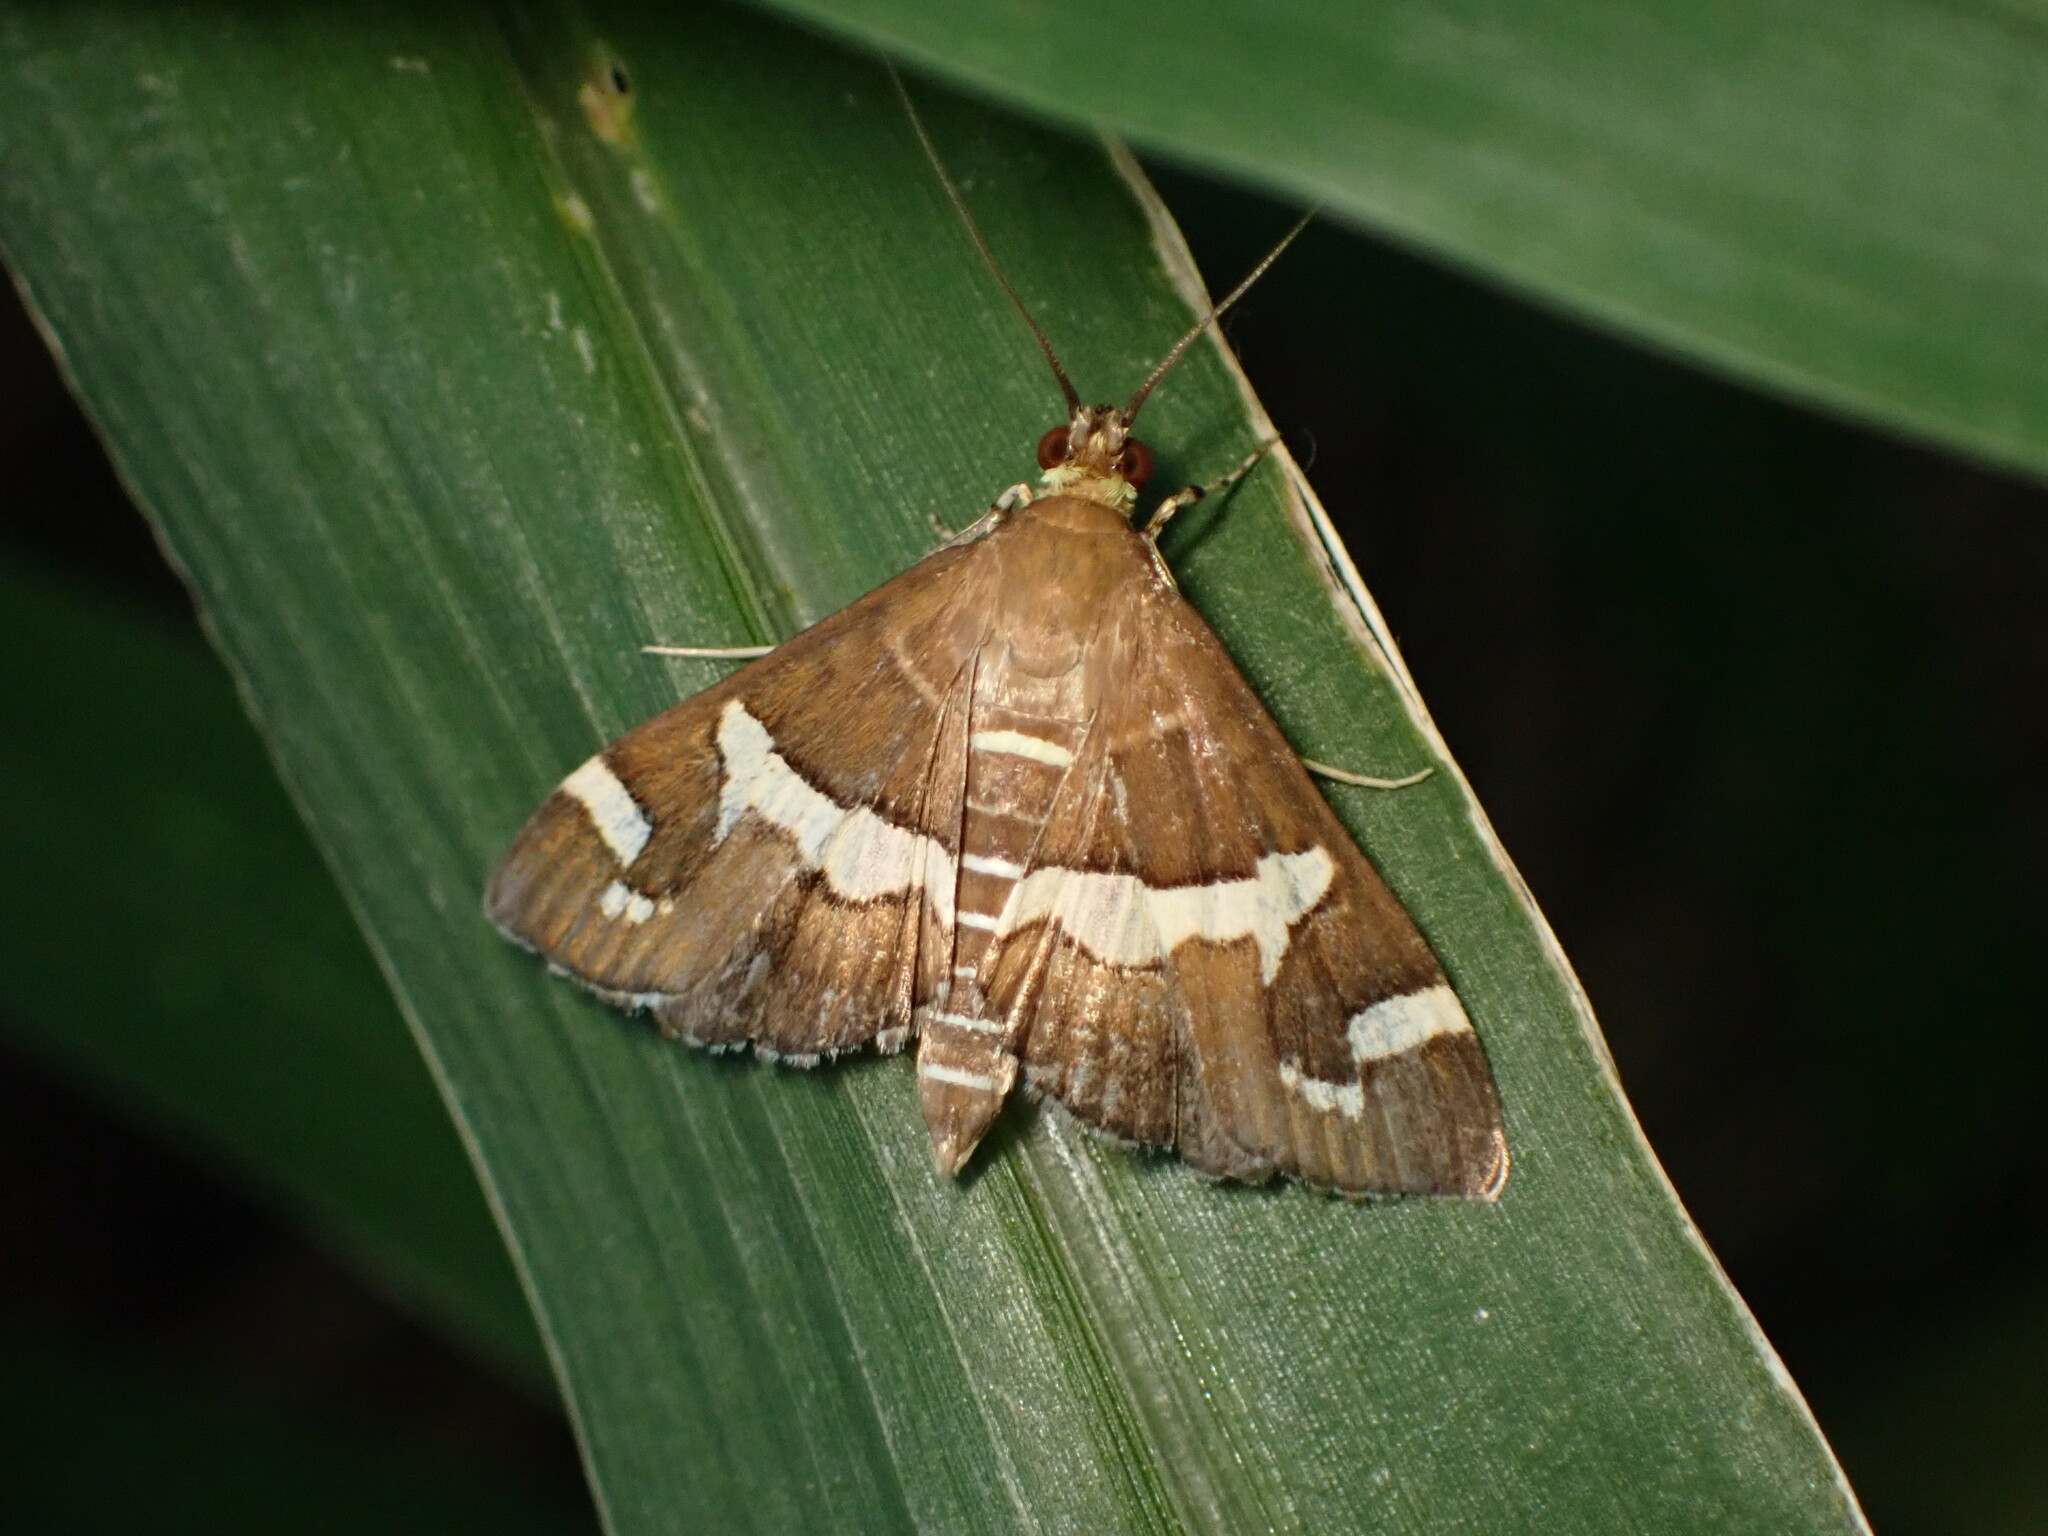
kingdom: Animalia
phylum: Arthropoda
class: Insecta
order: Lepidoptera
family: Crambidae
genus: Spoladea
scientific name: Spoladea recurvalis
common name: Beet webworm moth
